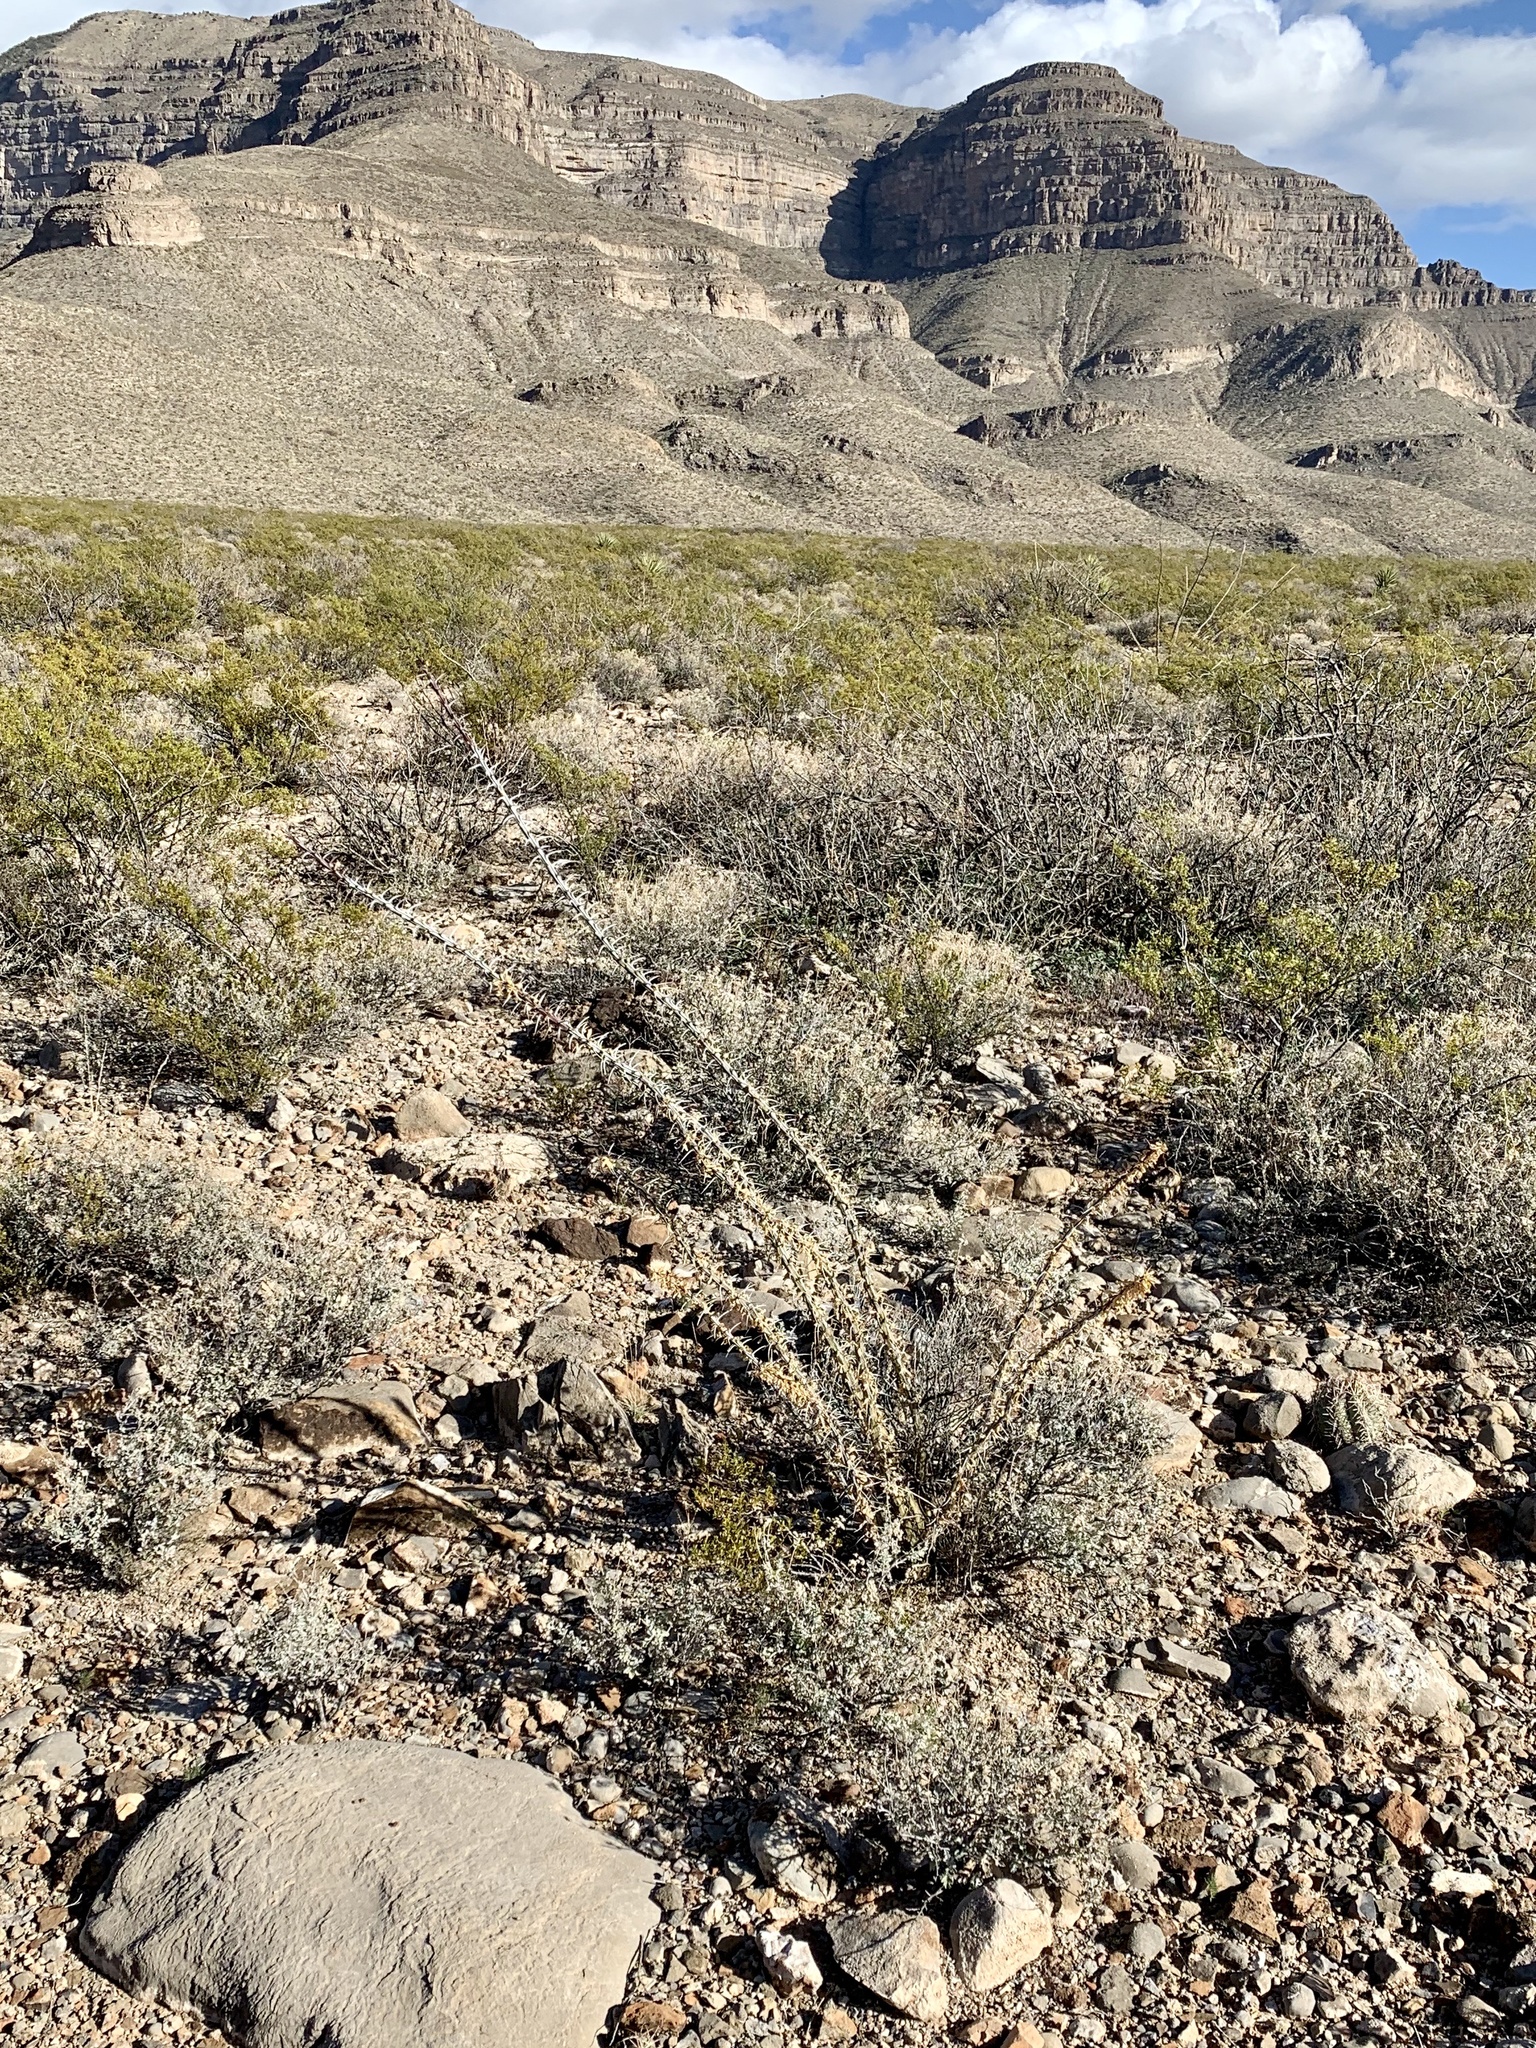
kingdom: Plantae
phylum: Tracheophyta
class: Magnoliopsida
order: Ericales
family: Fouquieriaceae
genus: Fouquieria
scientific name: Fouquieria splendens
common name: Vine-cactus
